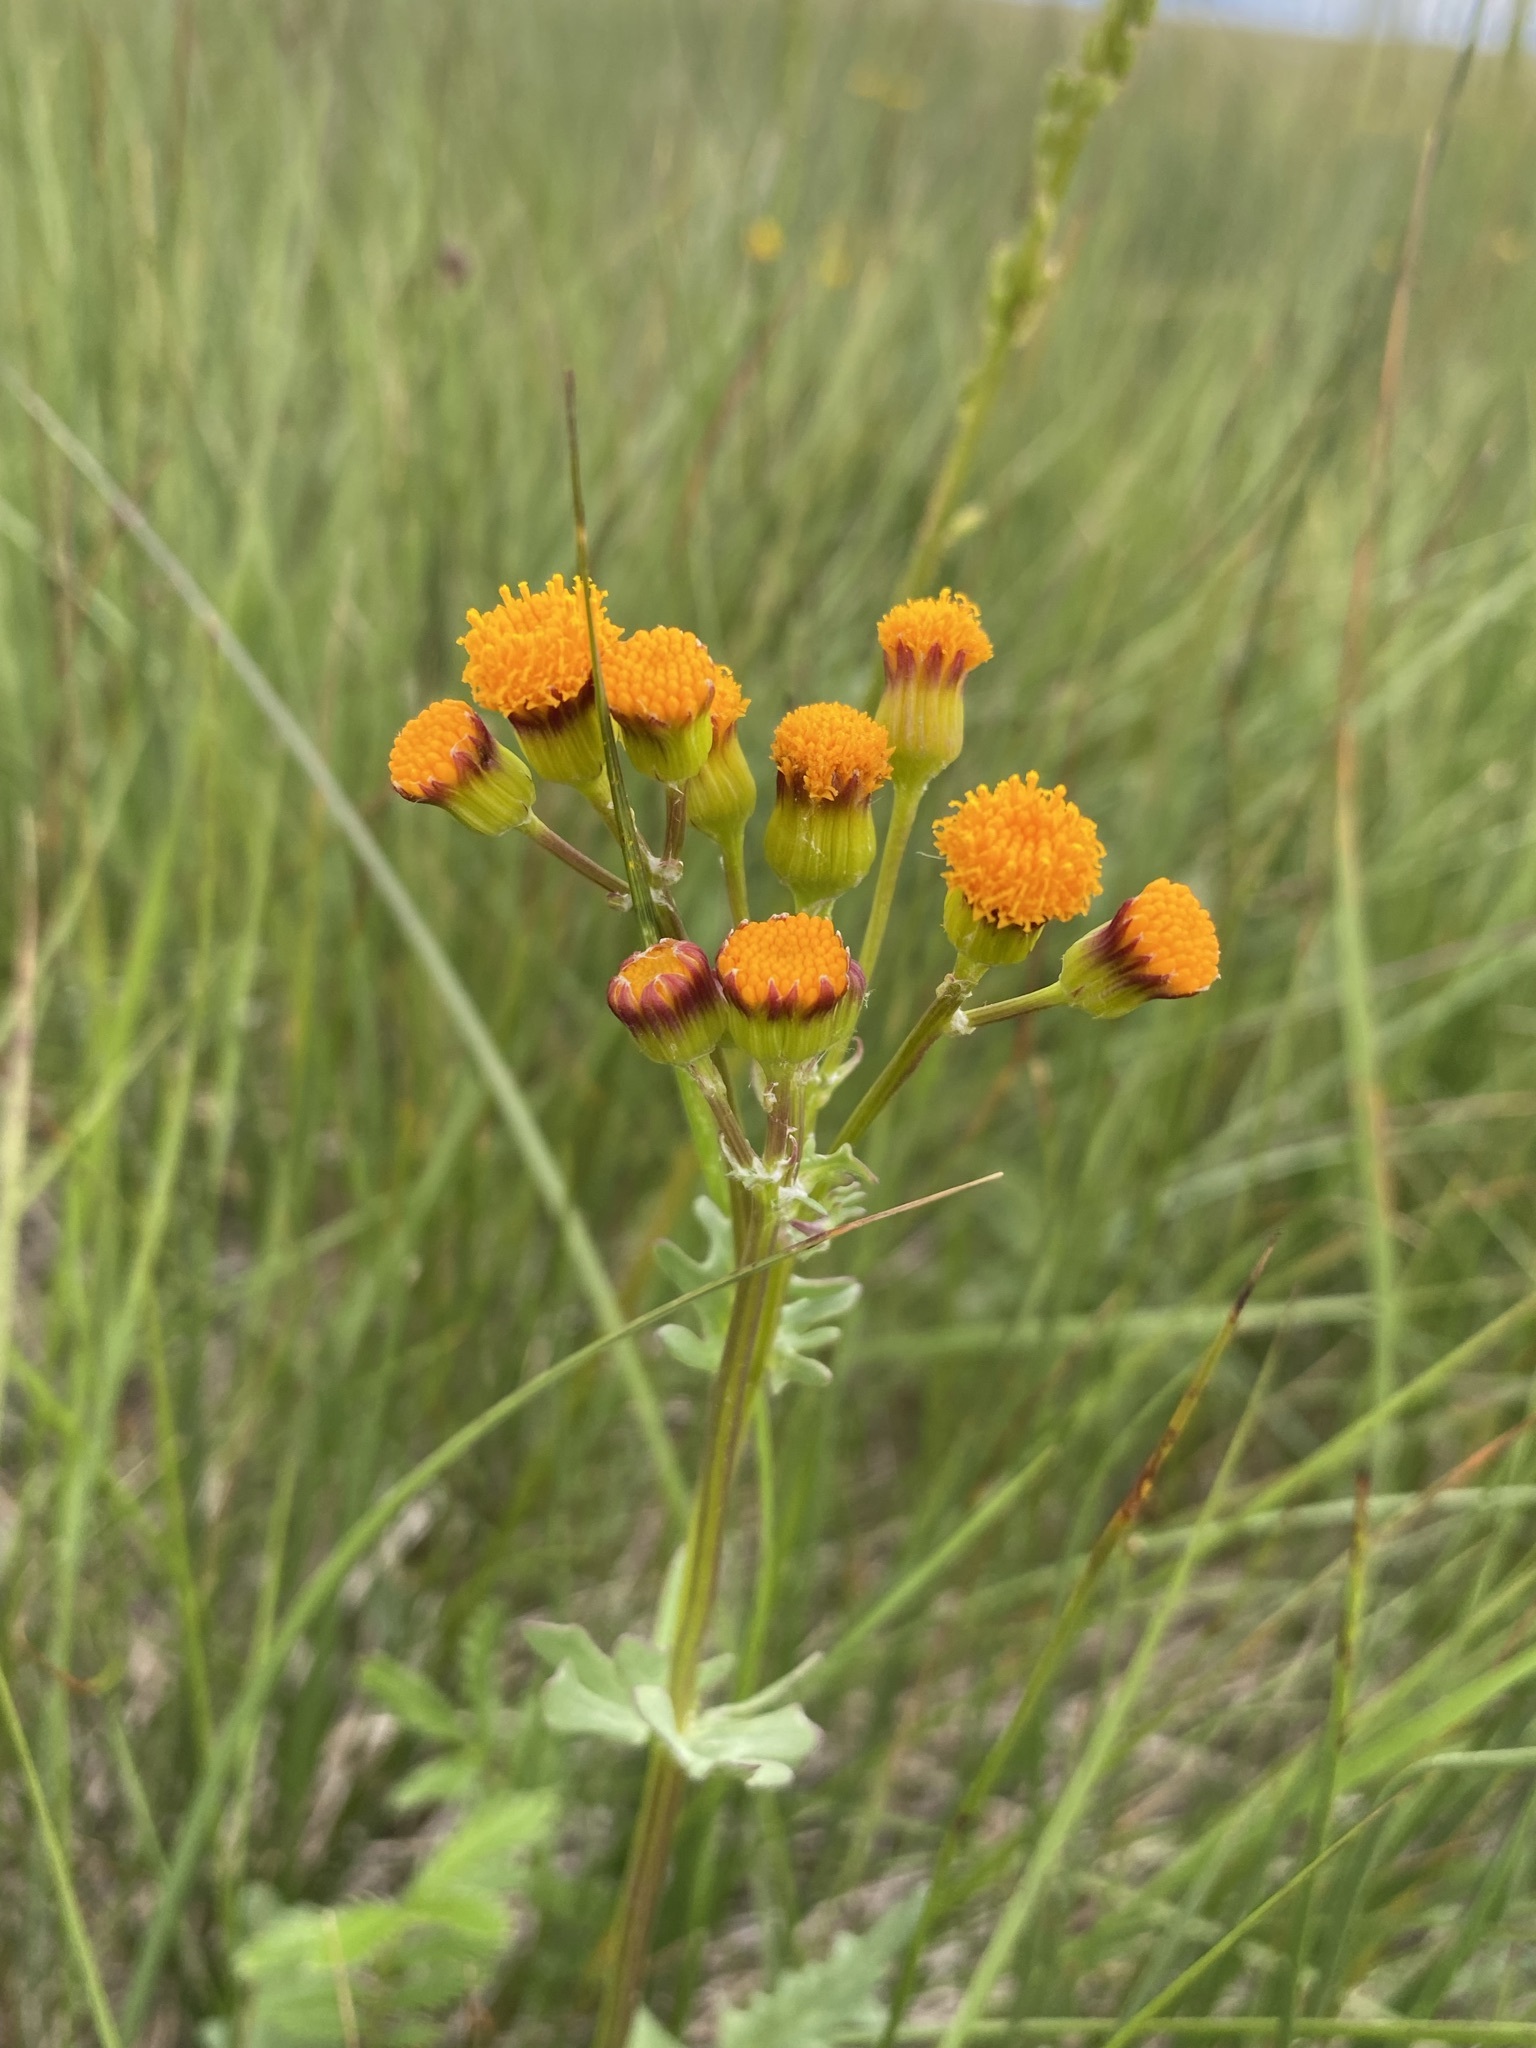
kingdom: Plantae
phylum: Tracheophyta
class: Magnoliopsida
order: Asterales
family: Asteraceae
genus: Packera
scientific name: Packera debilis
